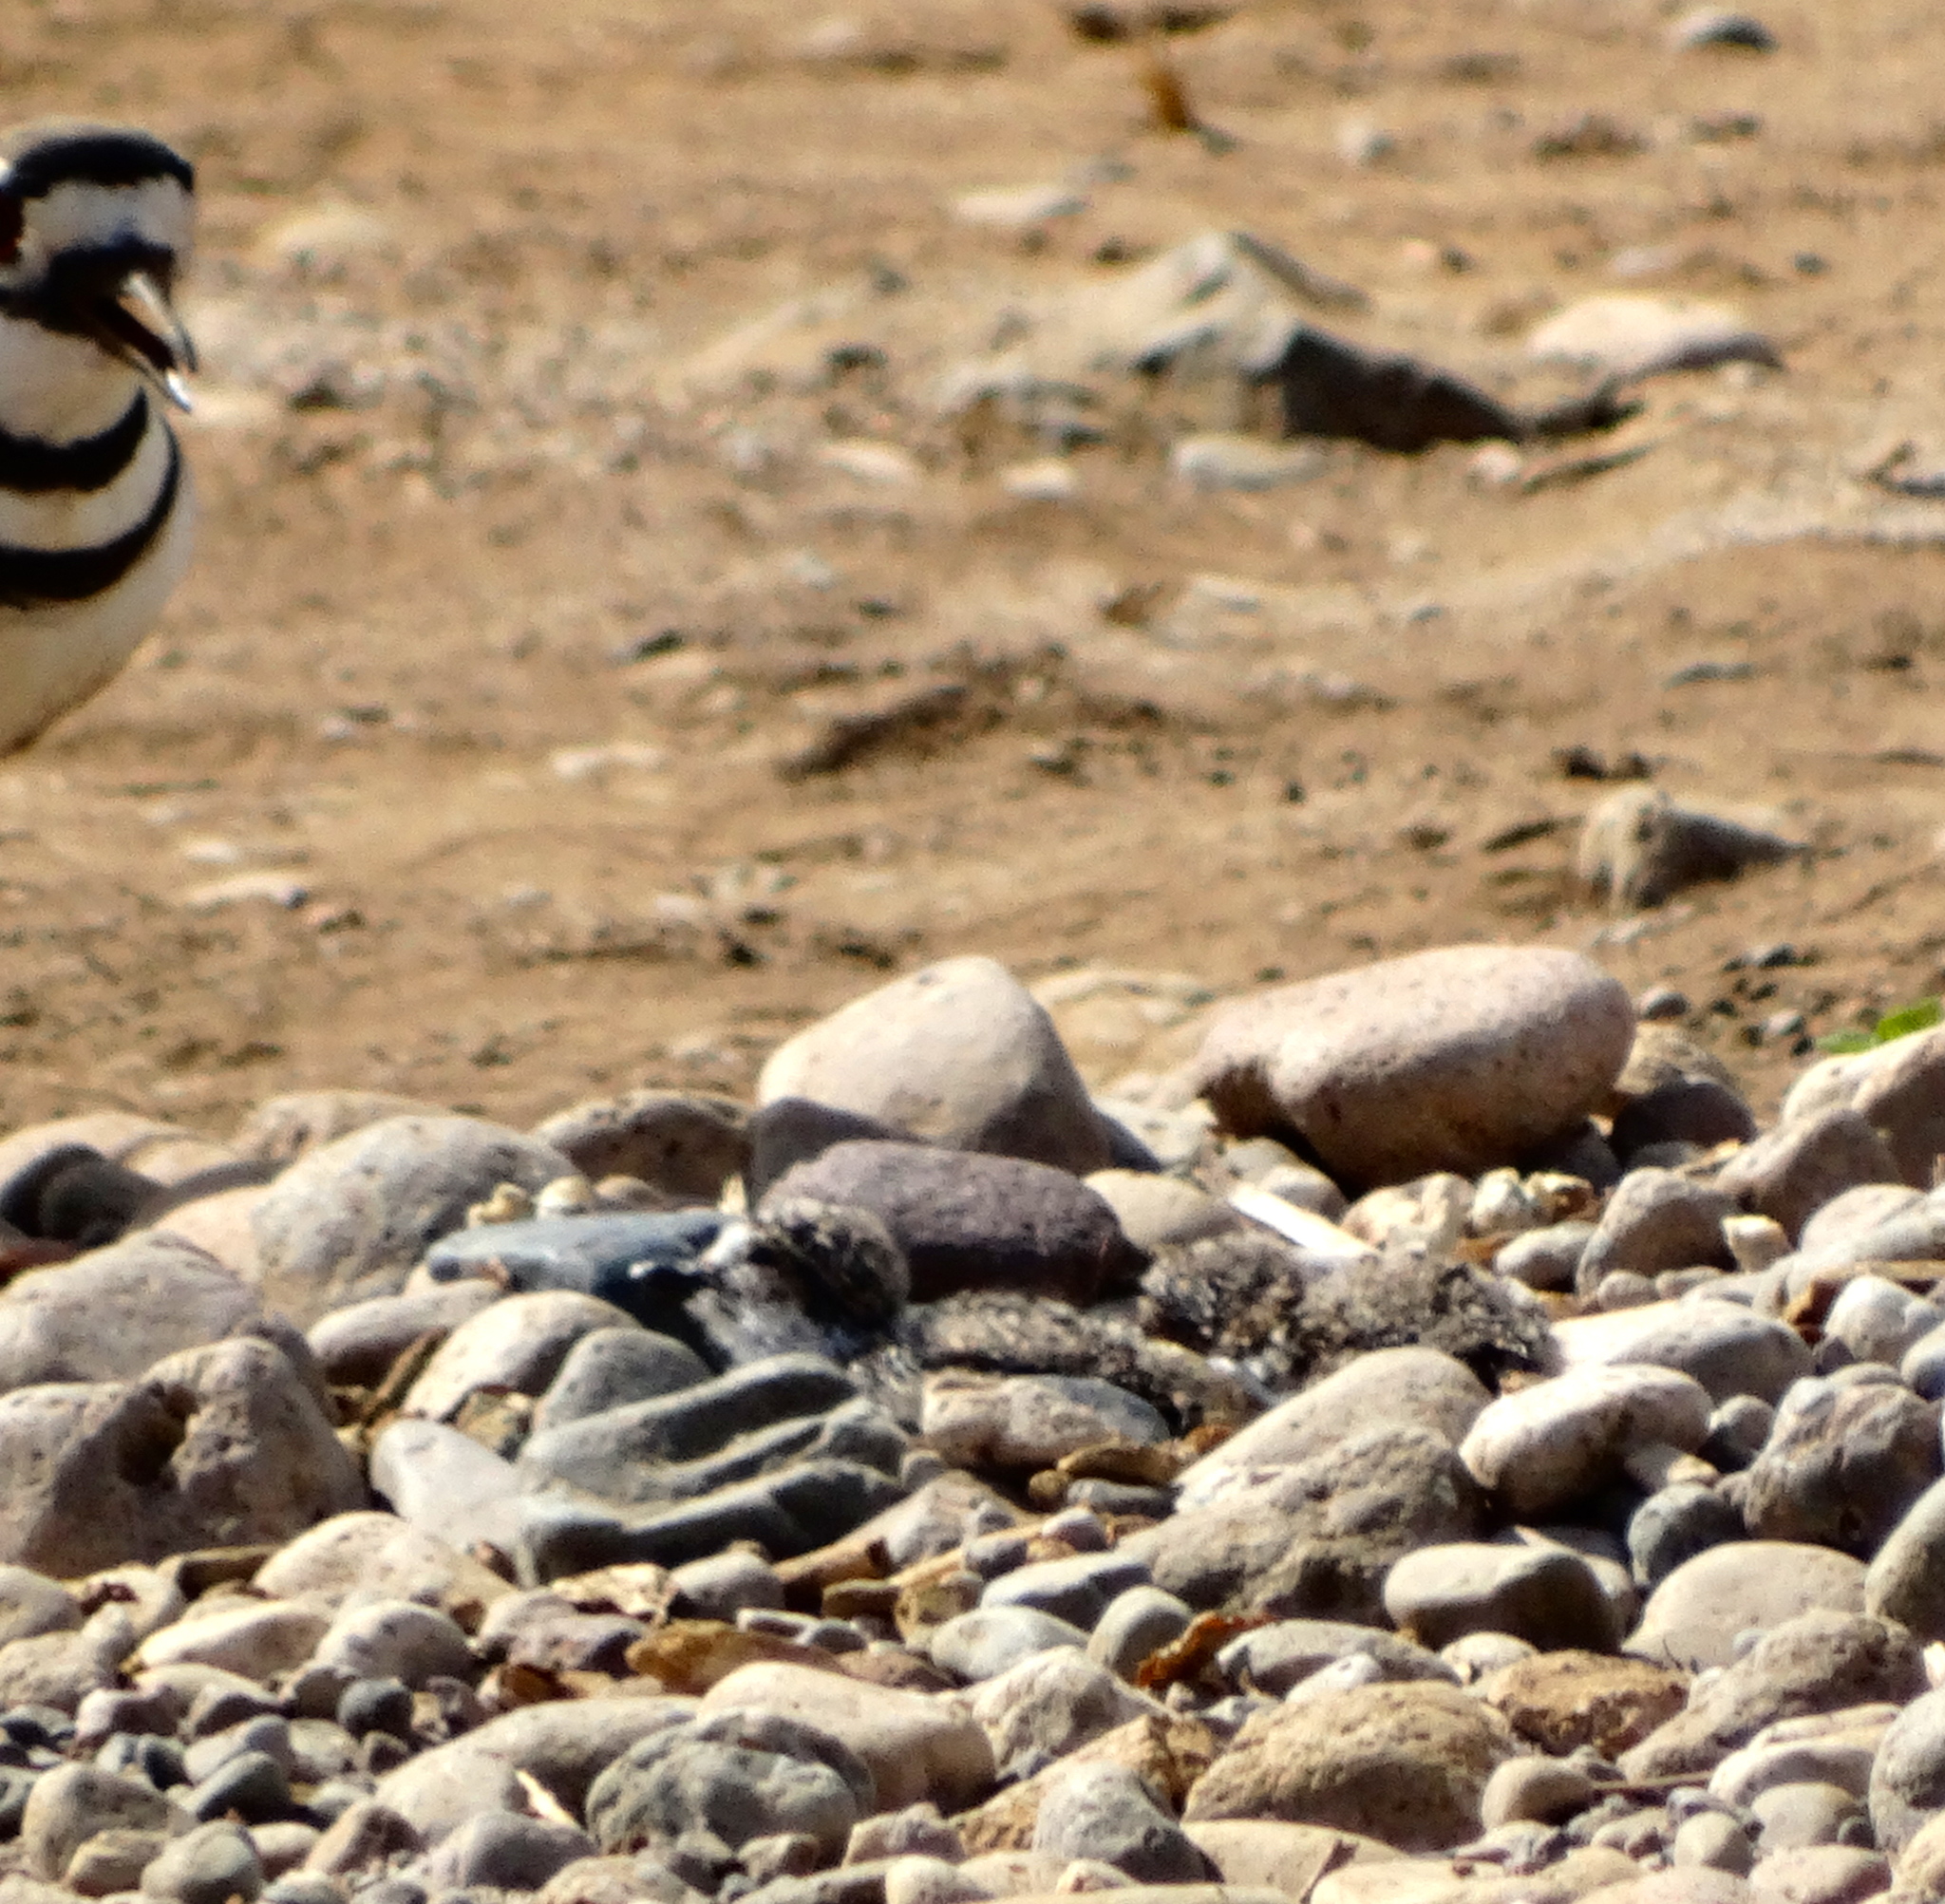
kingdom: Animalia
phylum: Chordata
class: Aves
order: Charadriiformes
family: Charadriidae
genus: Charadrius
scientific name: Charadrius vociferus
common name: Killdeer
